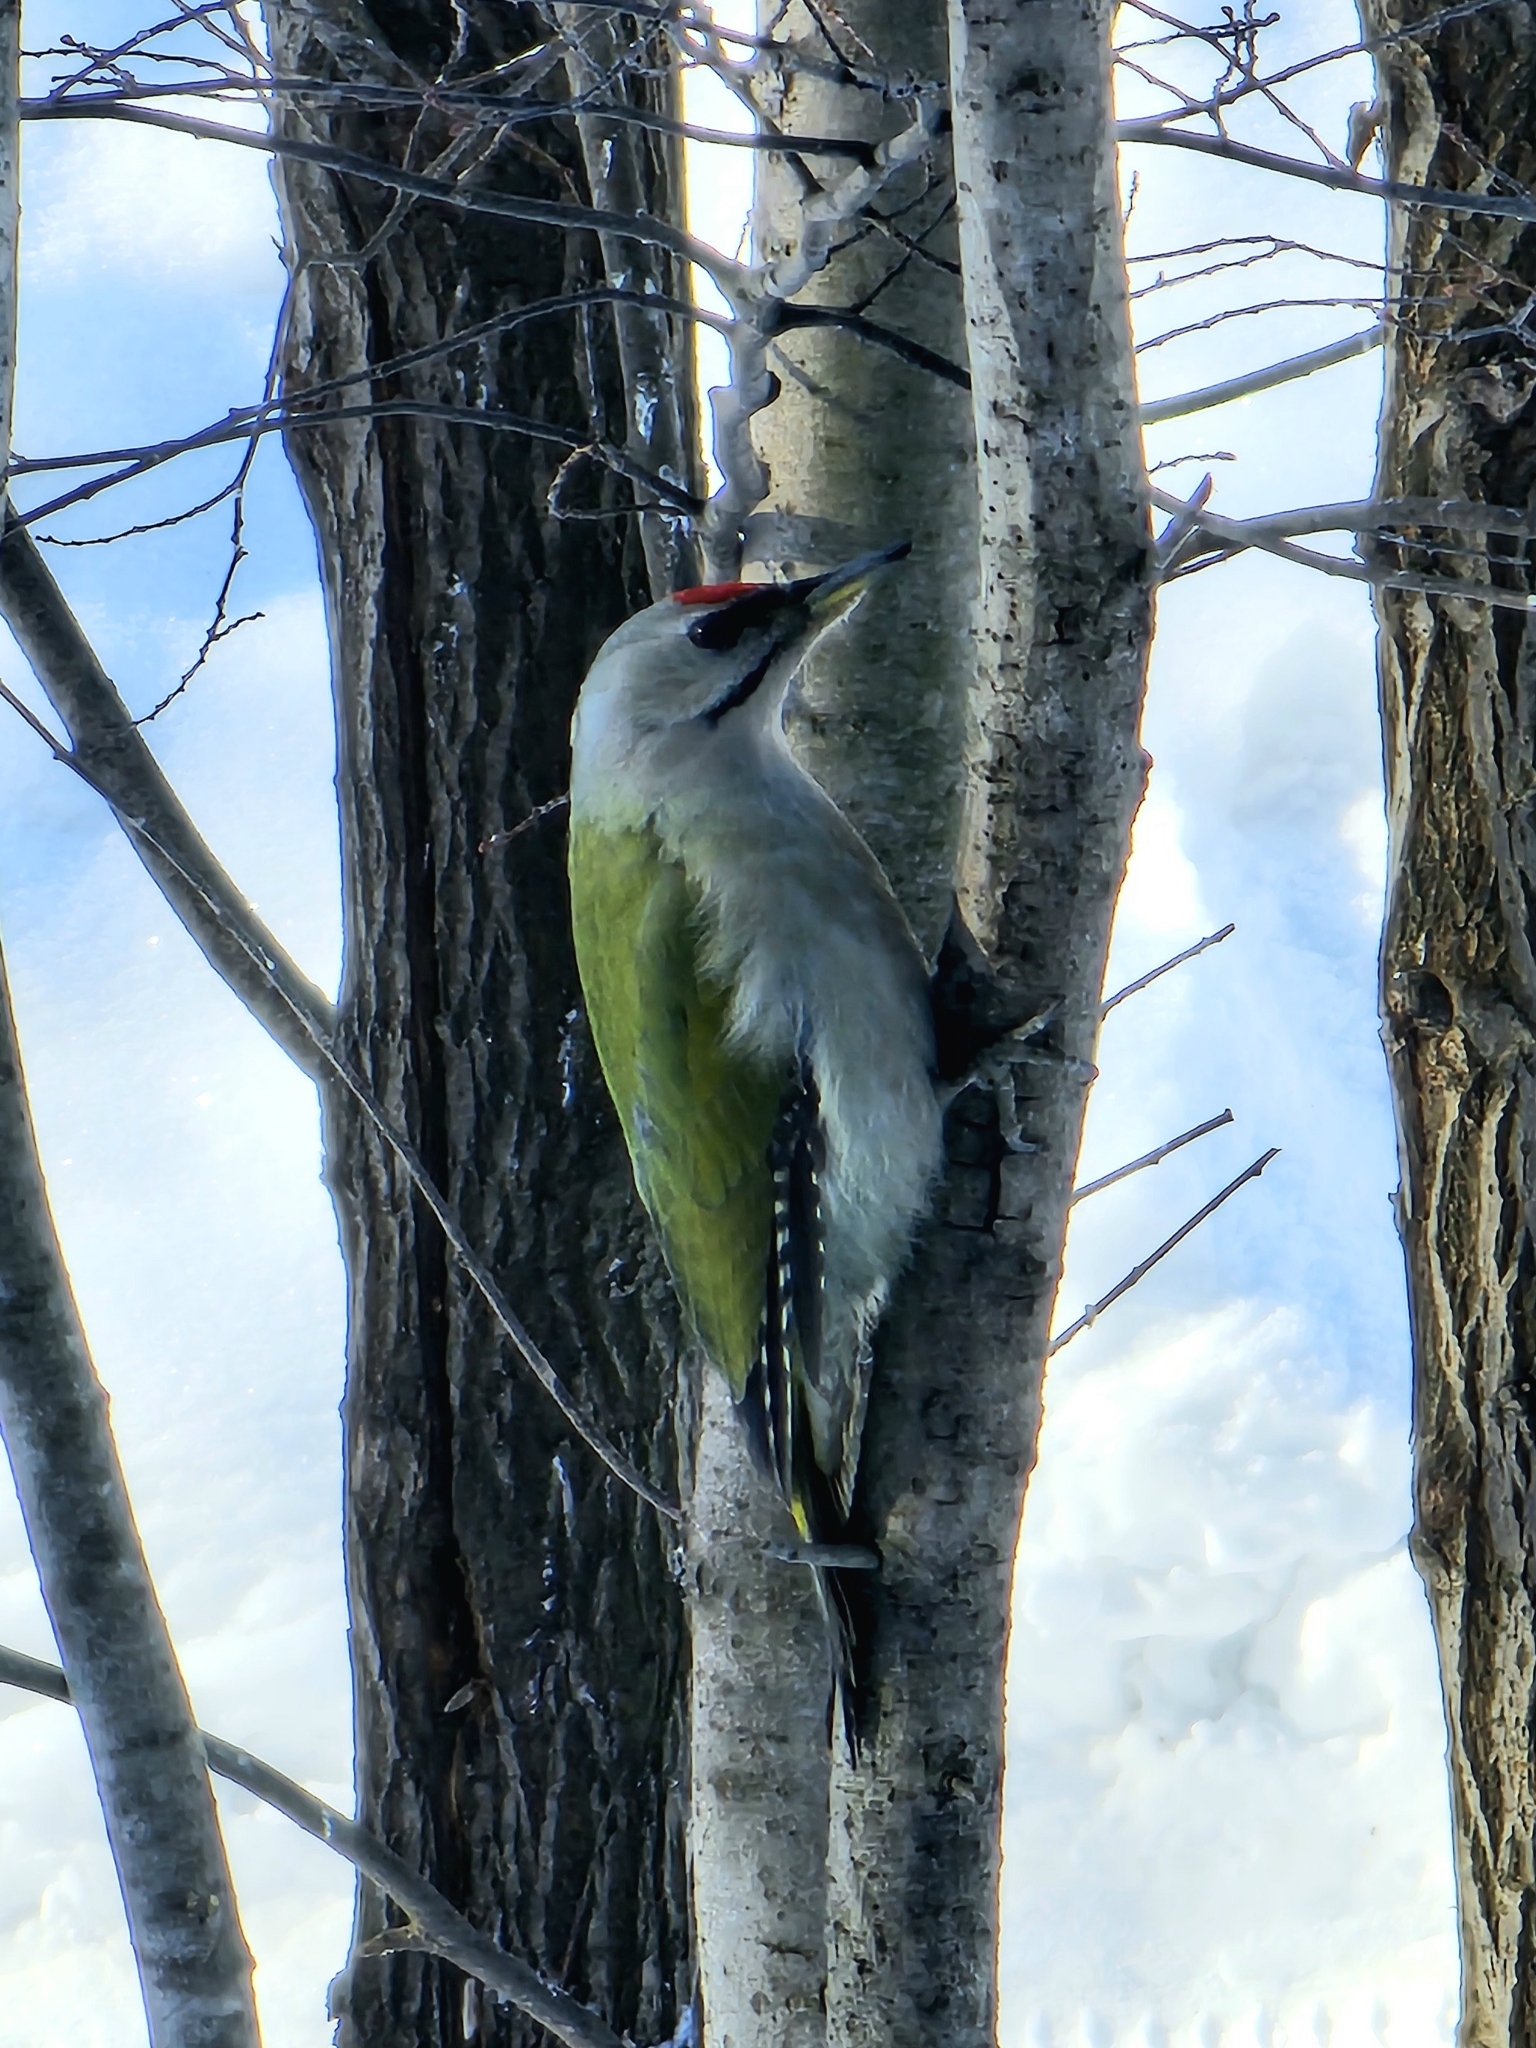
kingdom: Animalia
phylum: Chordata
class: Aves
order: Piciformes
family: Picidae
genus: Picus
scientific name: Picus canus
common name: Grey-headed woodpecker
